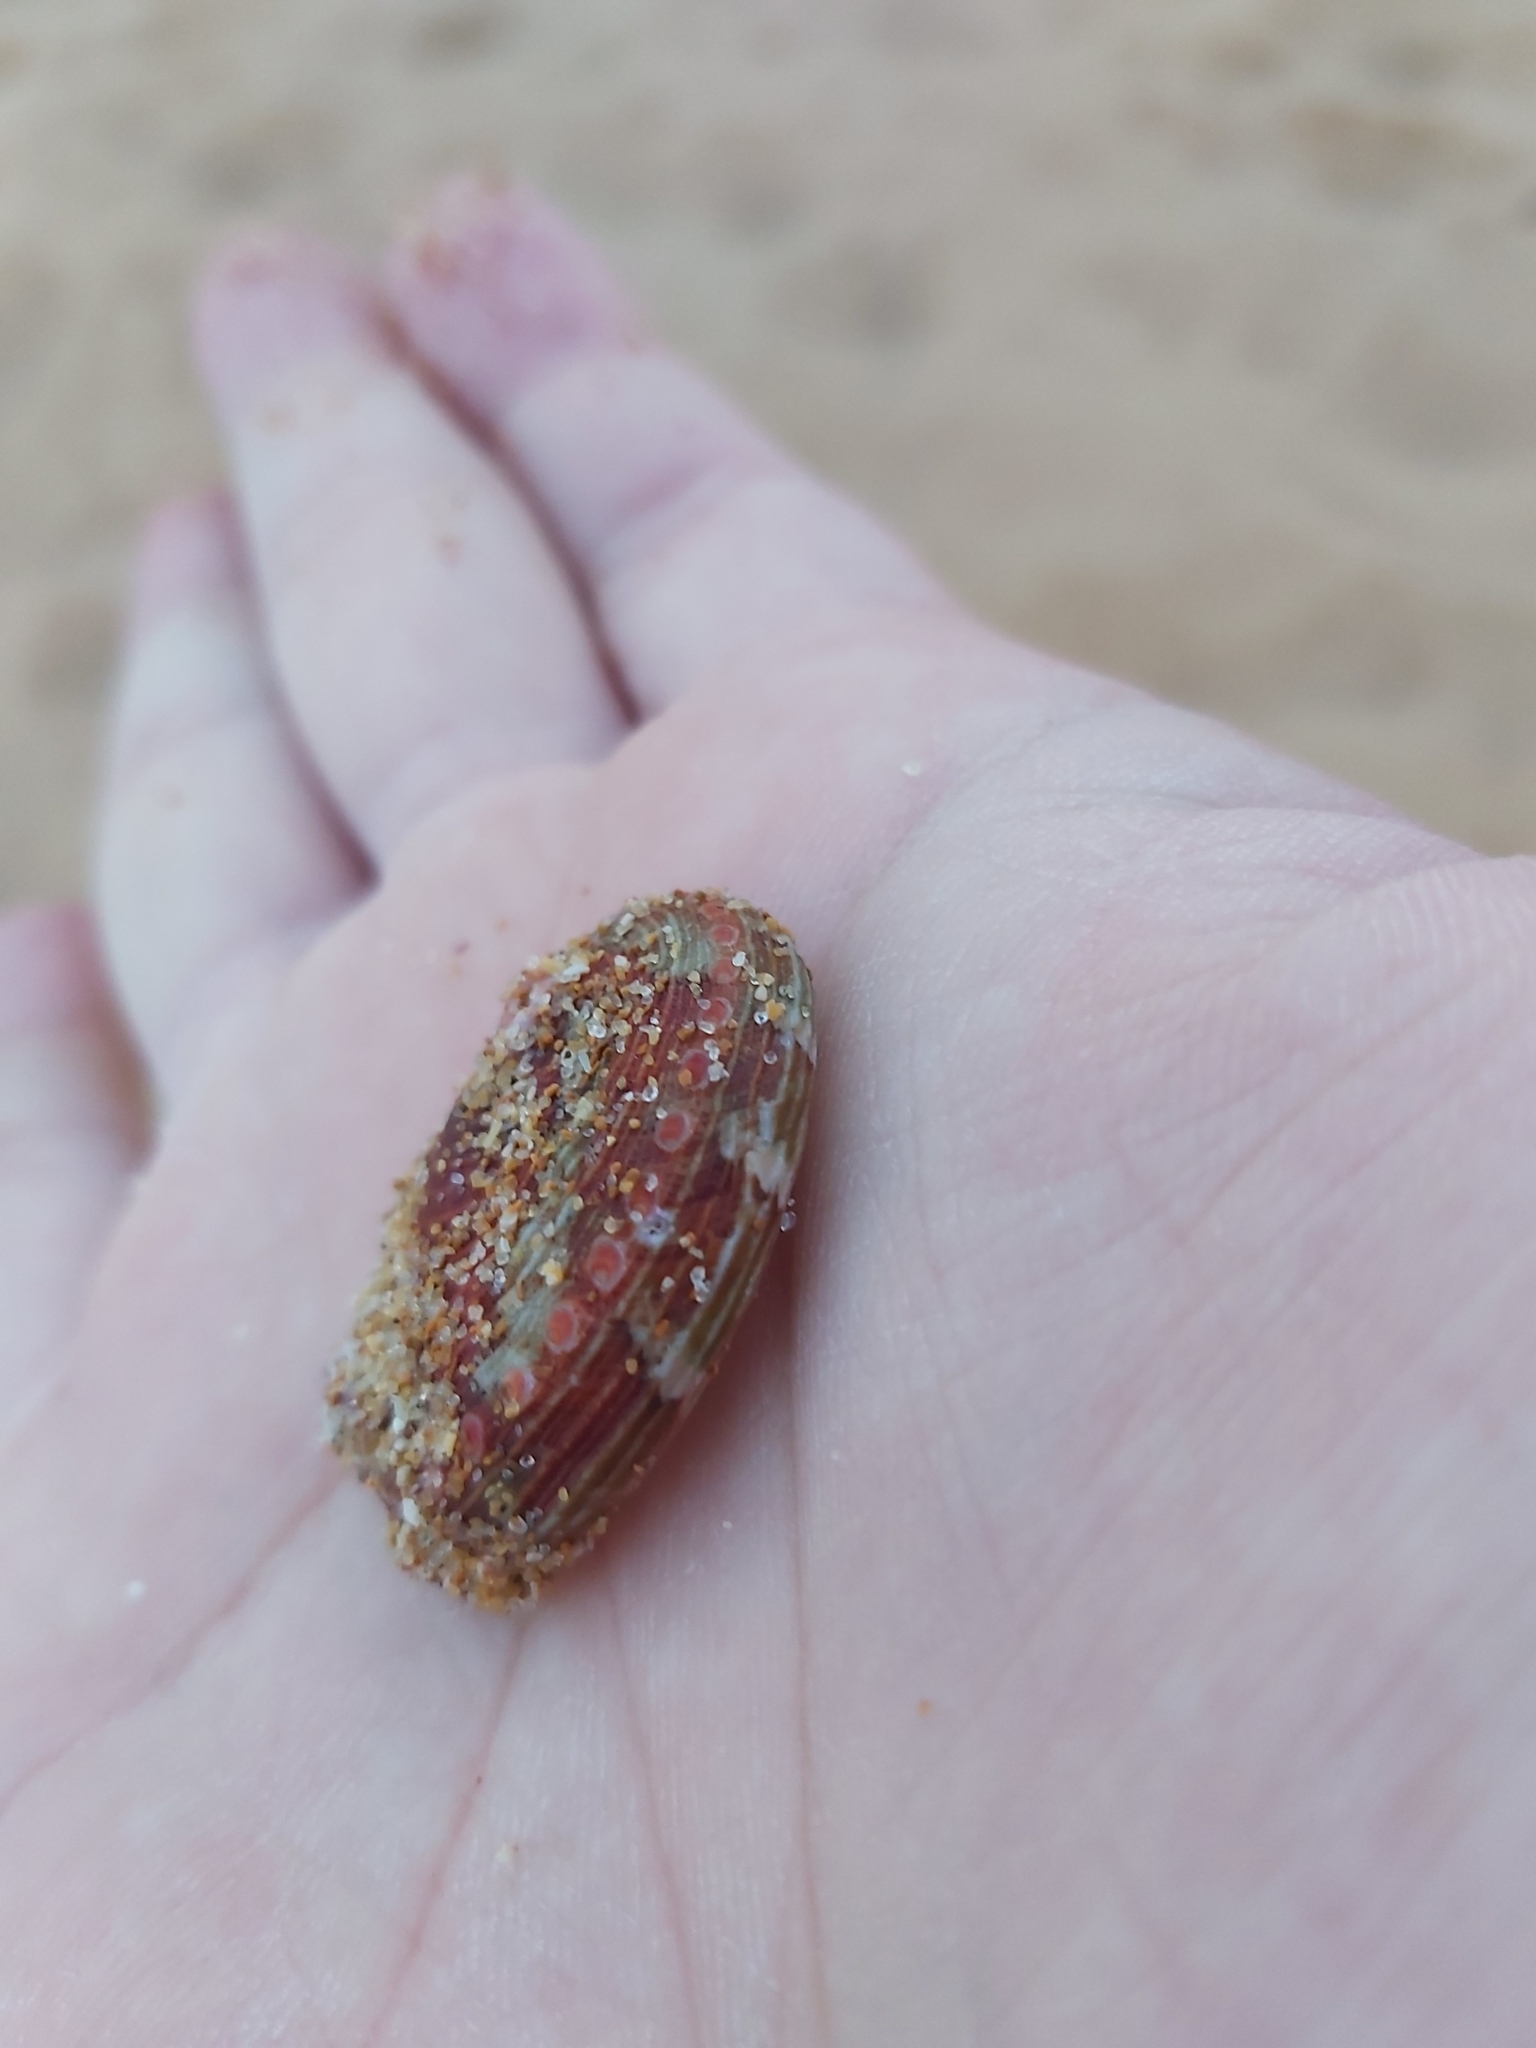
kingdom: Animalia
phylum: Mollusca
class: Gastropoda
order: Lepetellida
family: Haliotidae
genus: Haliotis
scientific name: Haliotis coccoradiata
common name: Reddish-rayed abalone
